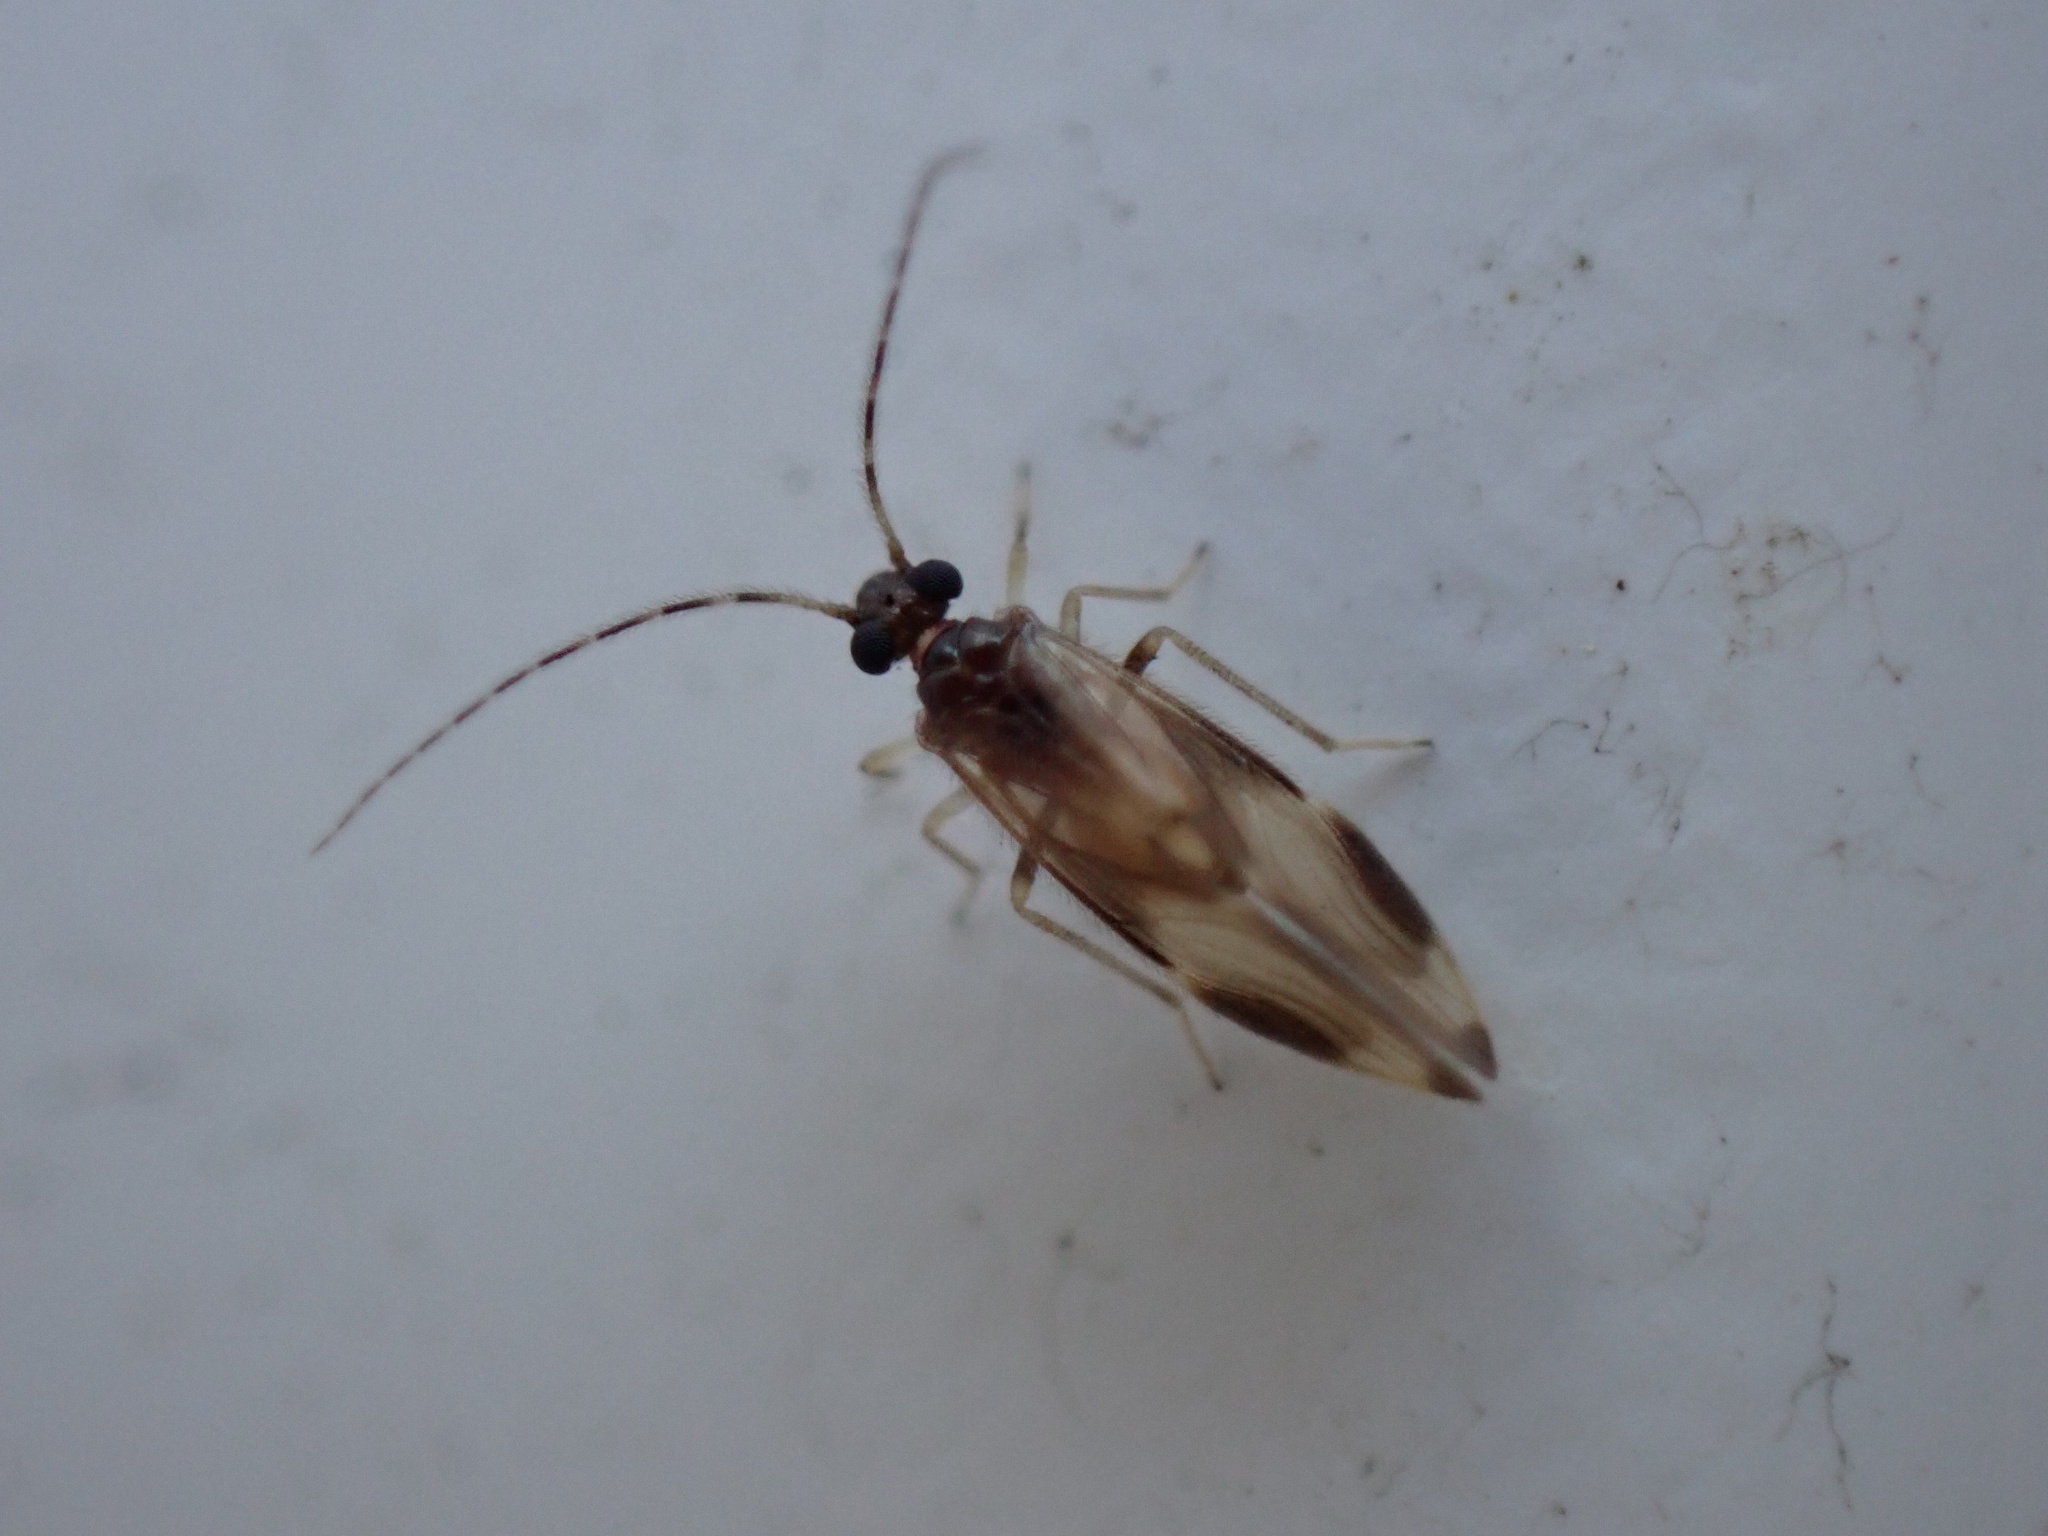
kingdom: Animalia
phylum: Arthropoda
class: Insecta
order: Psocodea
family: Amphipsocidae
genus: Polypsocus
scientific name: Polypsocus corruptus
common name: Corrupt barklouse
